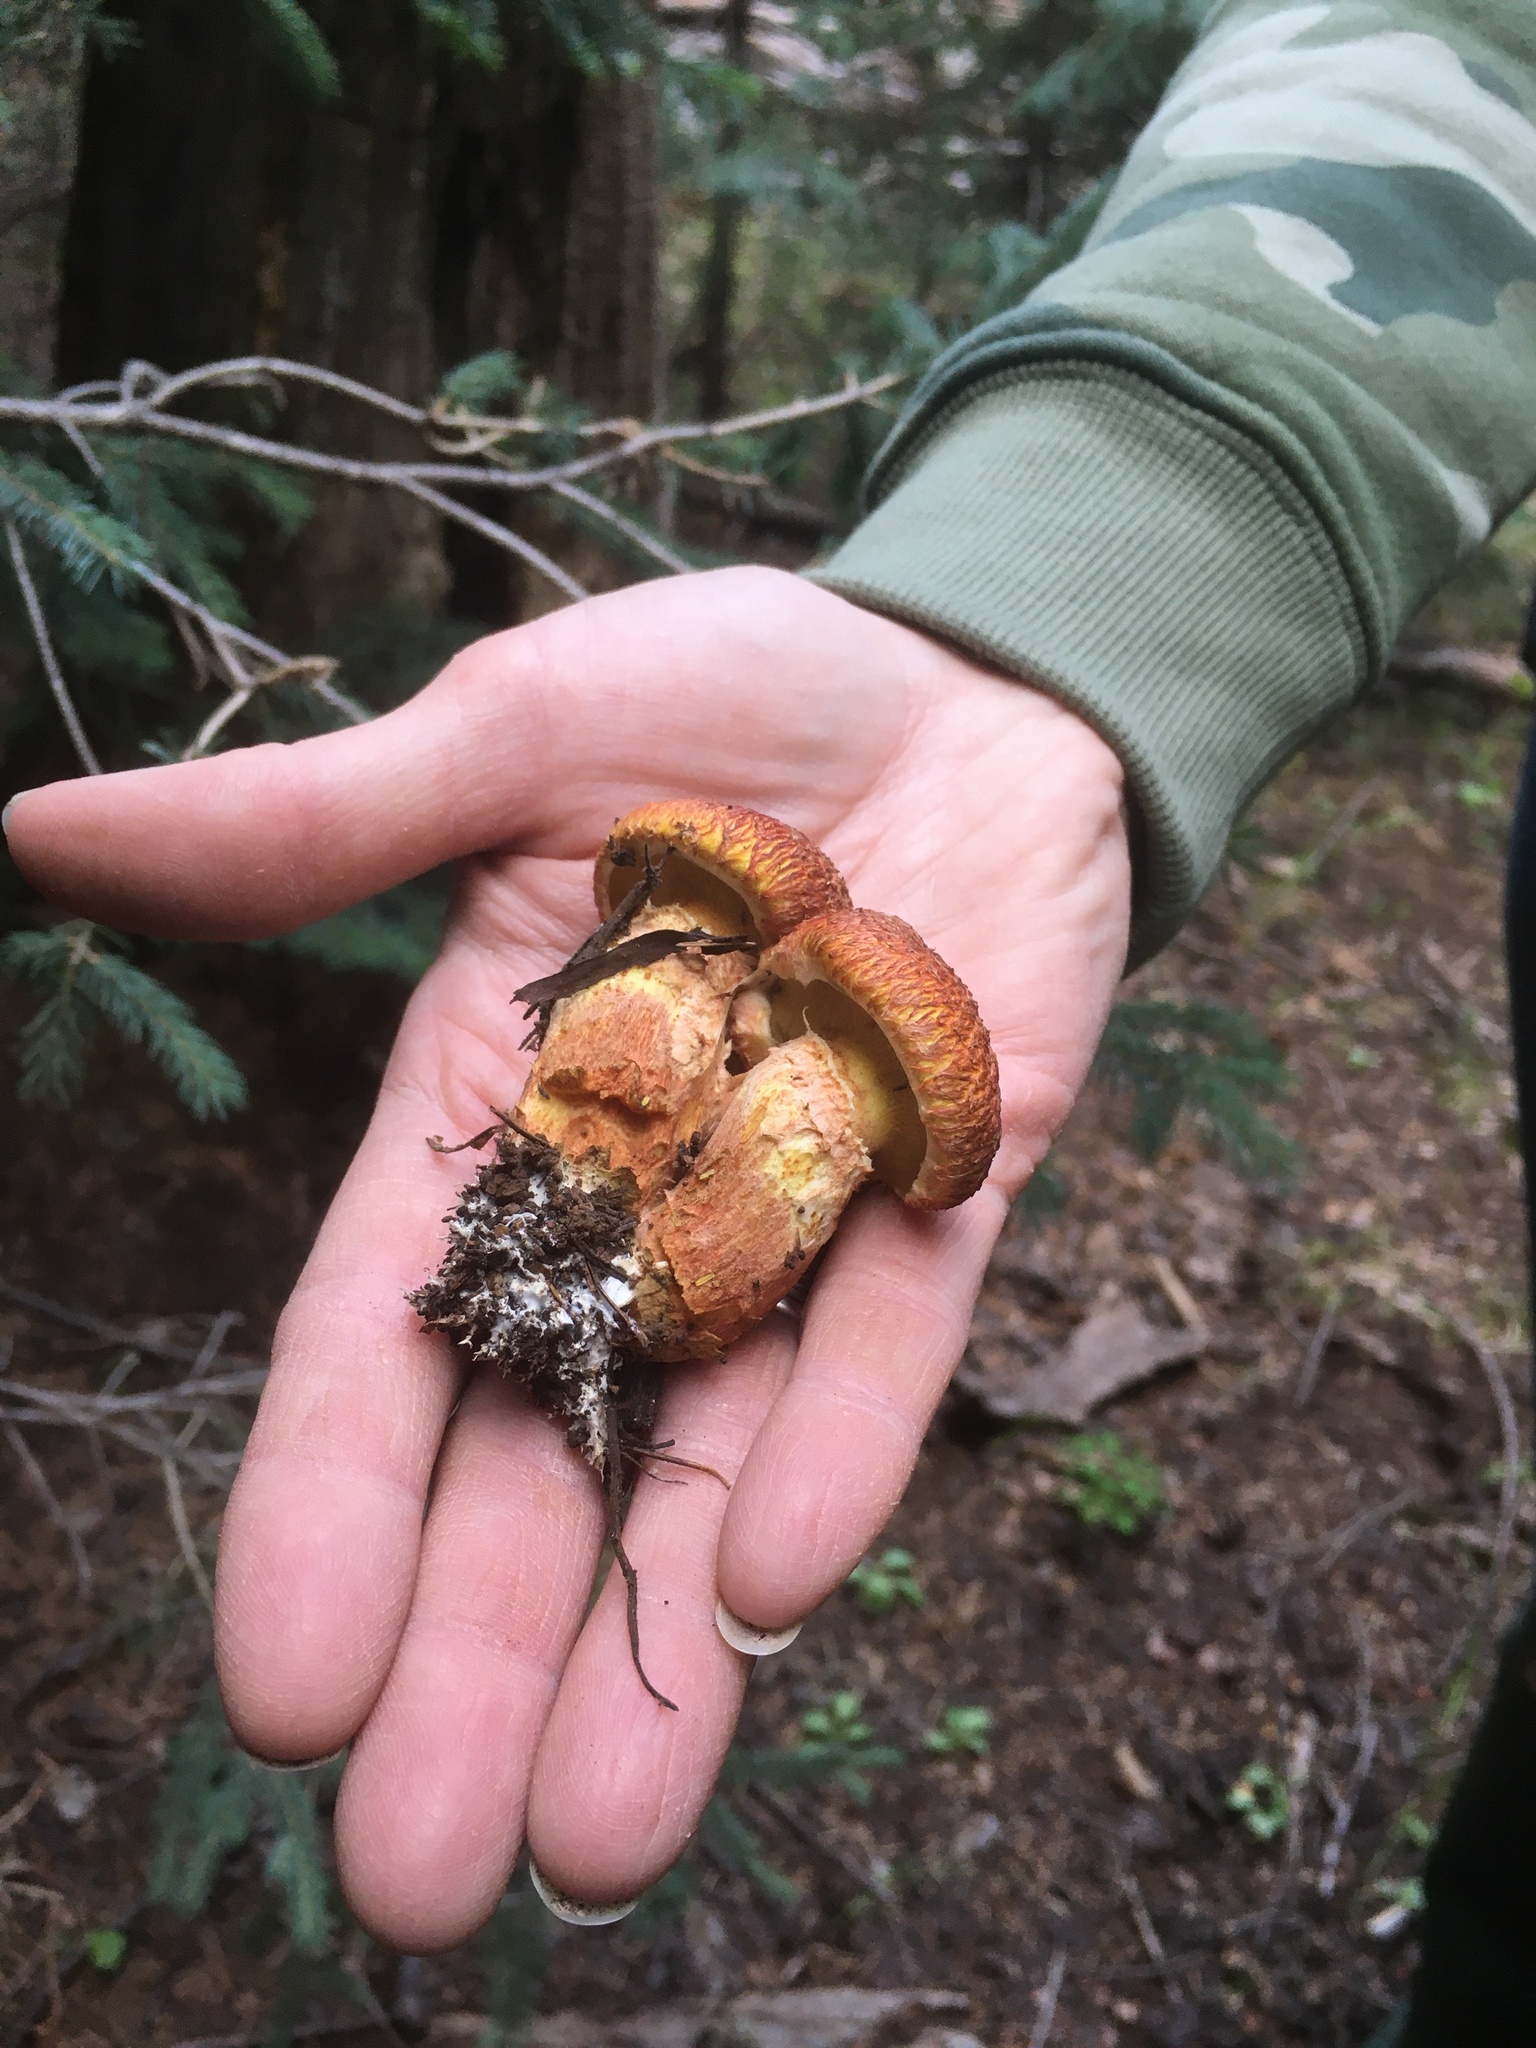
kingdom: Fungi
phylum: Basidiomycota
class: Agaricomycetes
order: Boletales
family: Suillaceae
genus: Suillus
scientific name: Suillus lakei
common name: Western painted suillus
